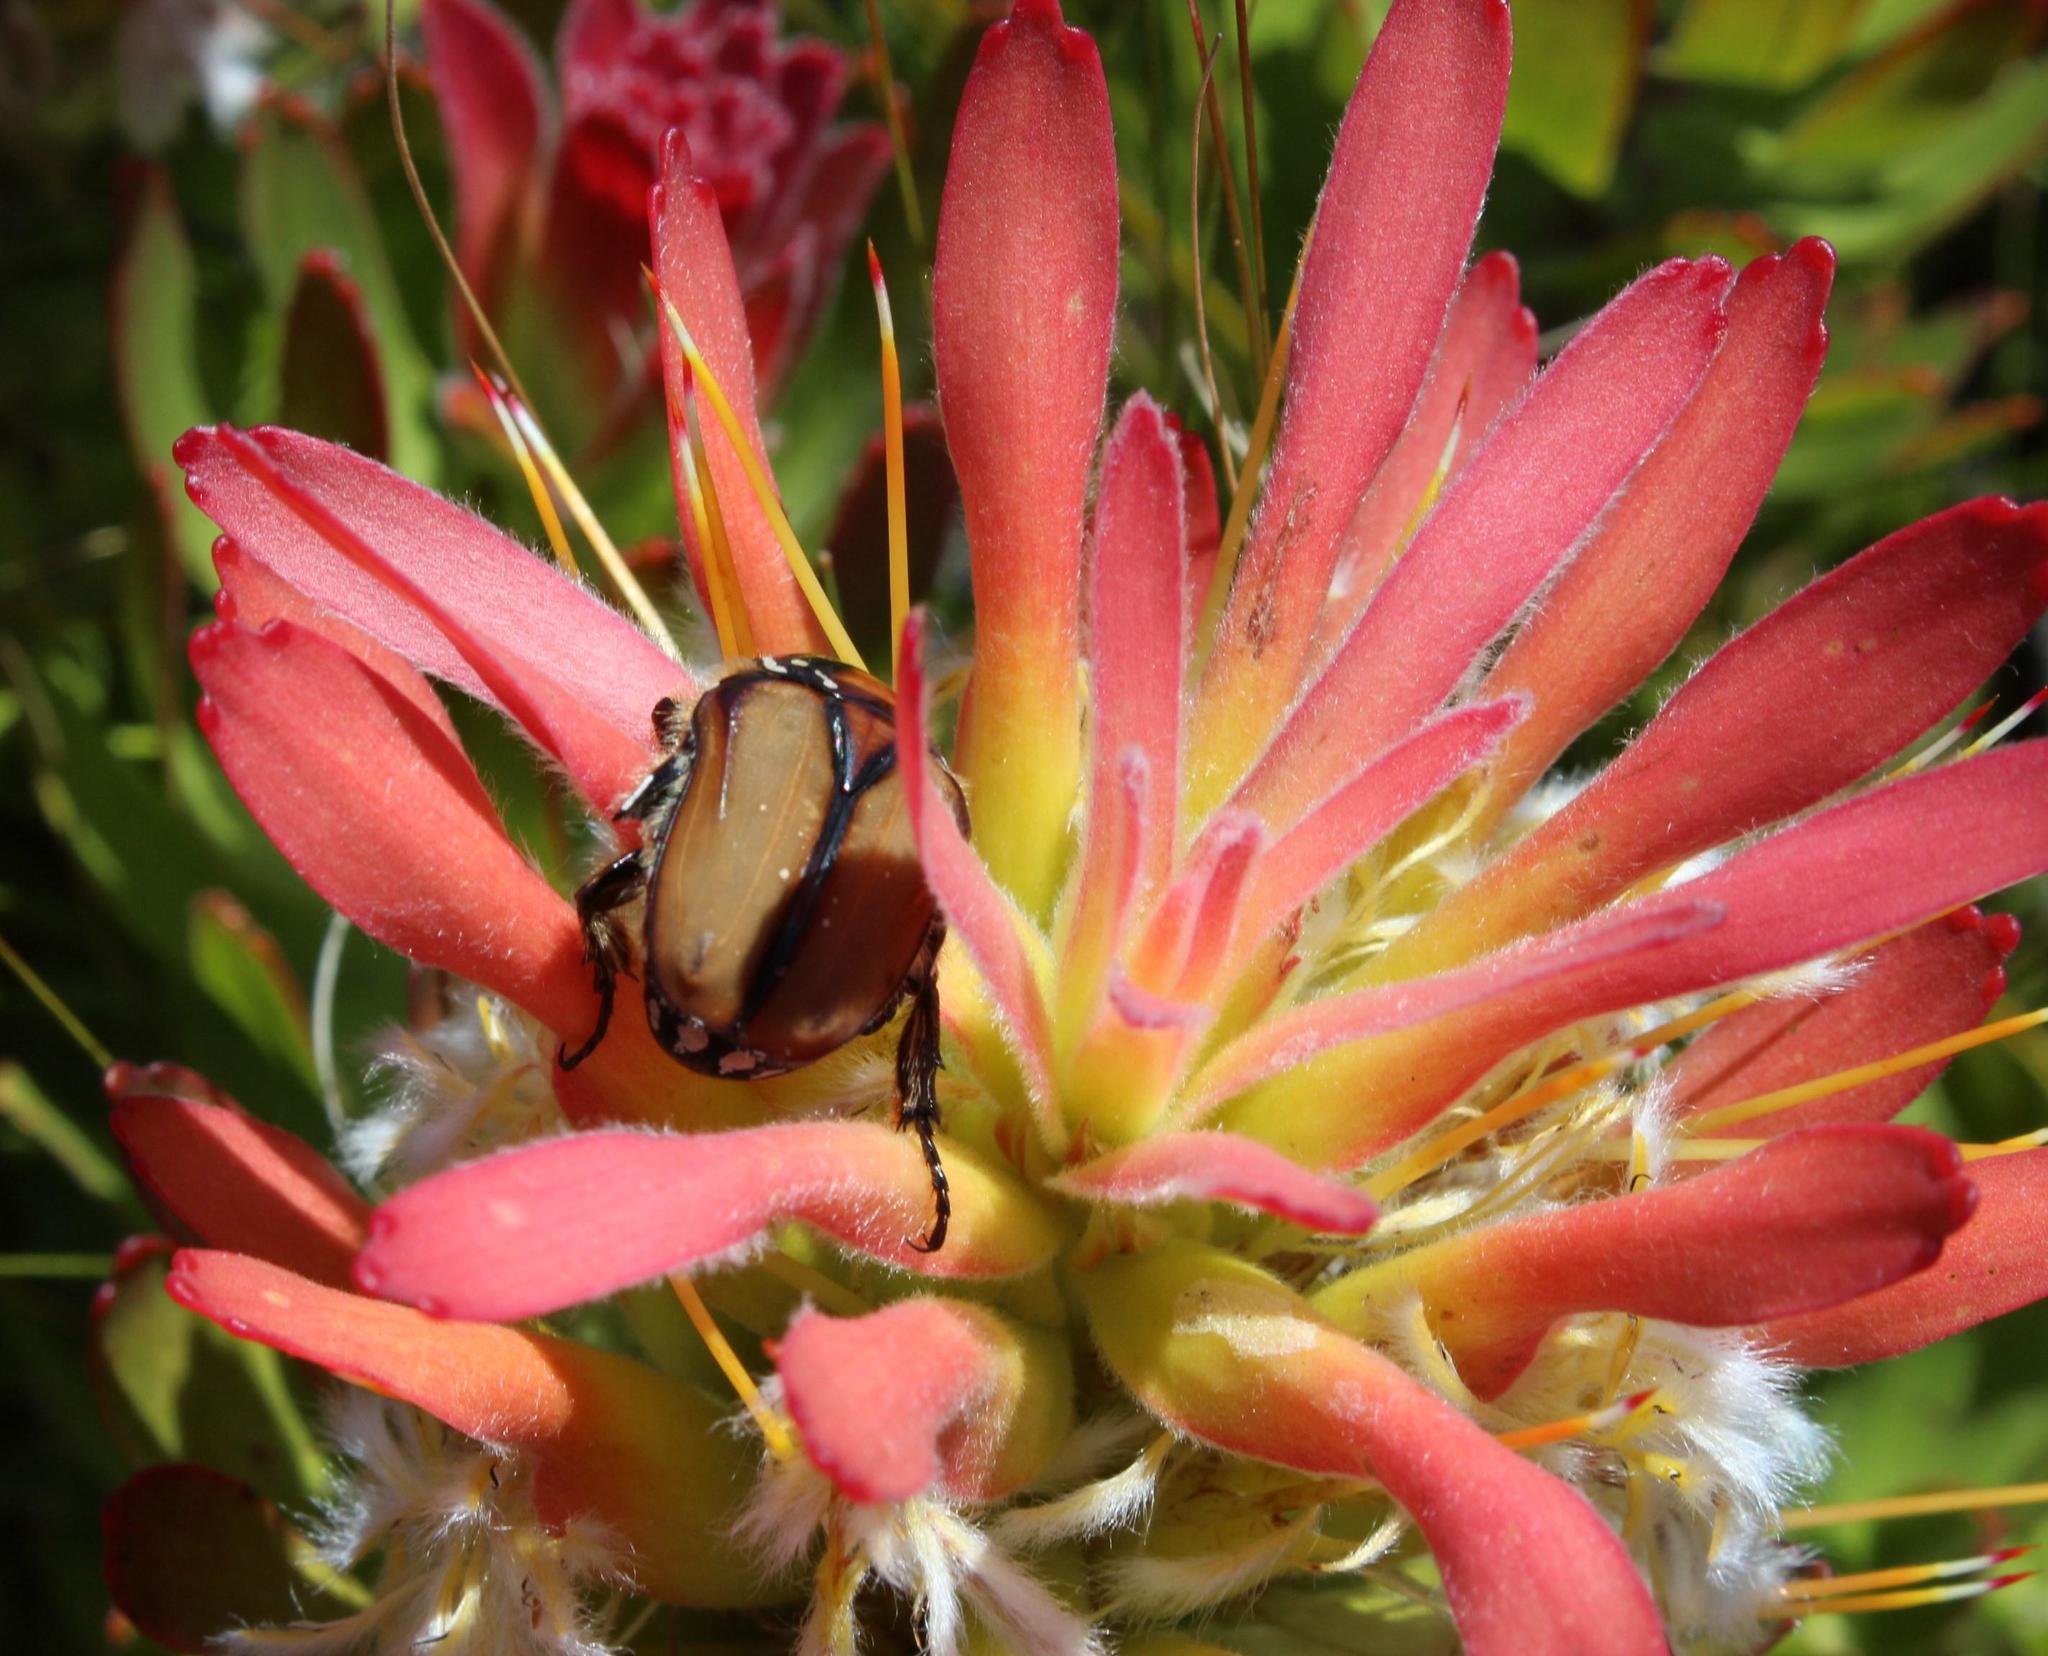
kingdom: Plantae
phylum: Tracheophyta
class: Magnoliopsida
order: Proteales
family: Proteaceae
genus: Mimetes
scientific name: Mimetes cucullatus
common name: Common pagoda
